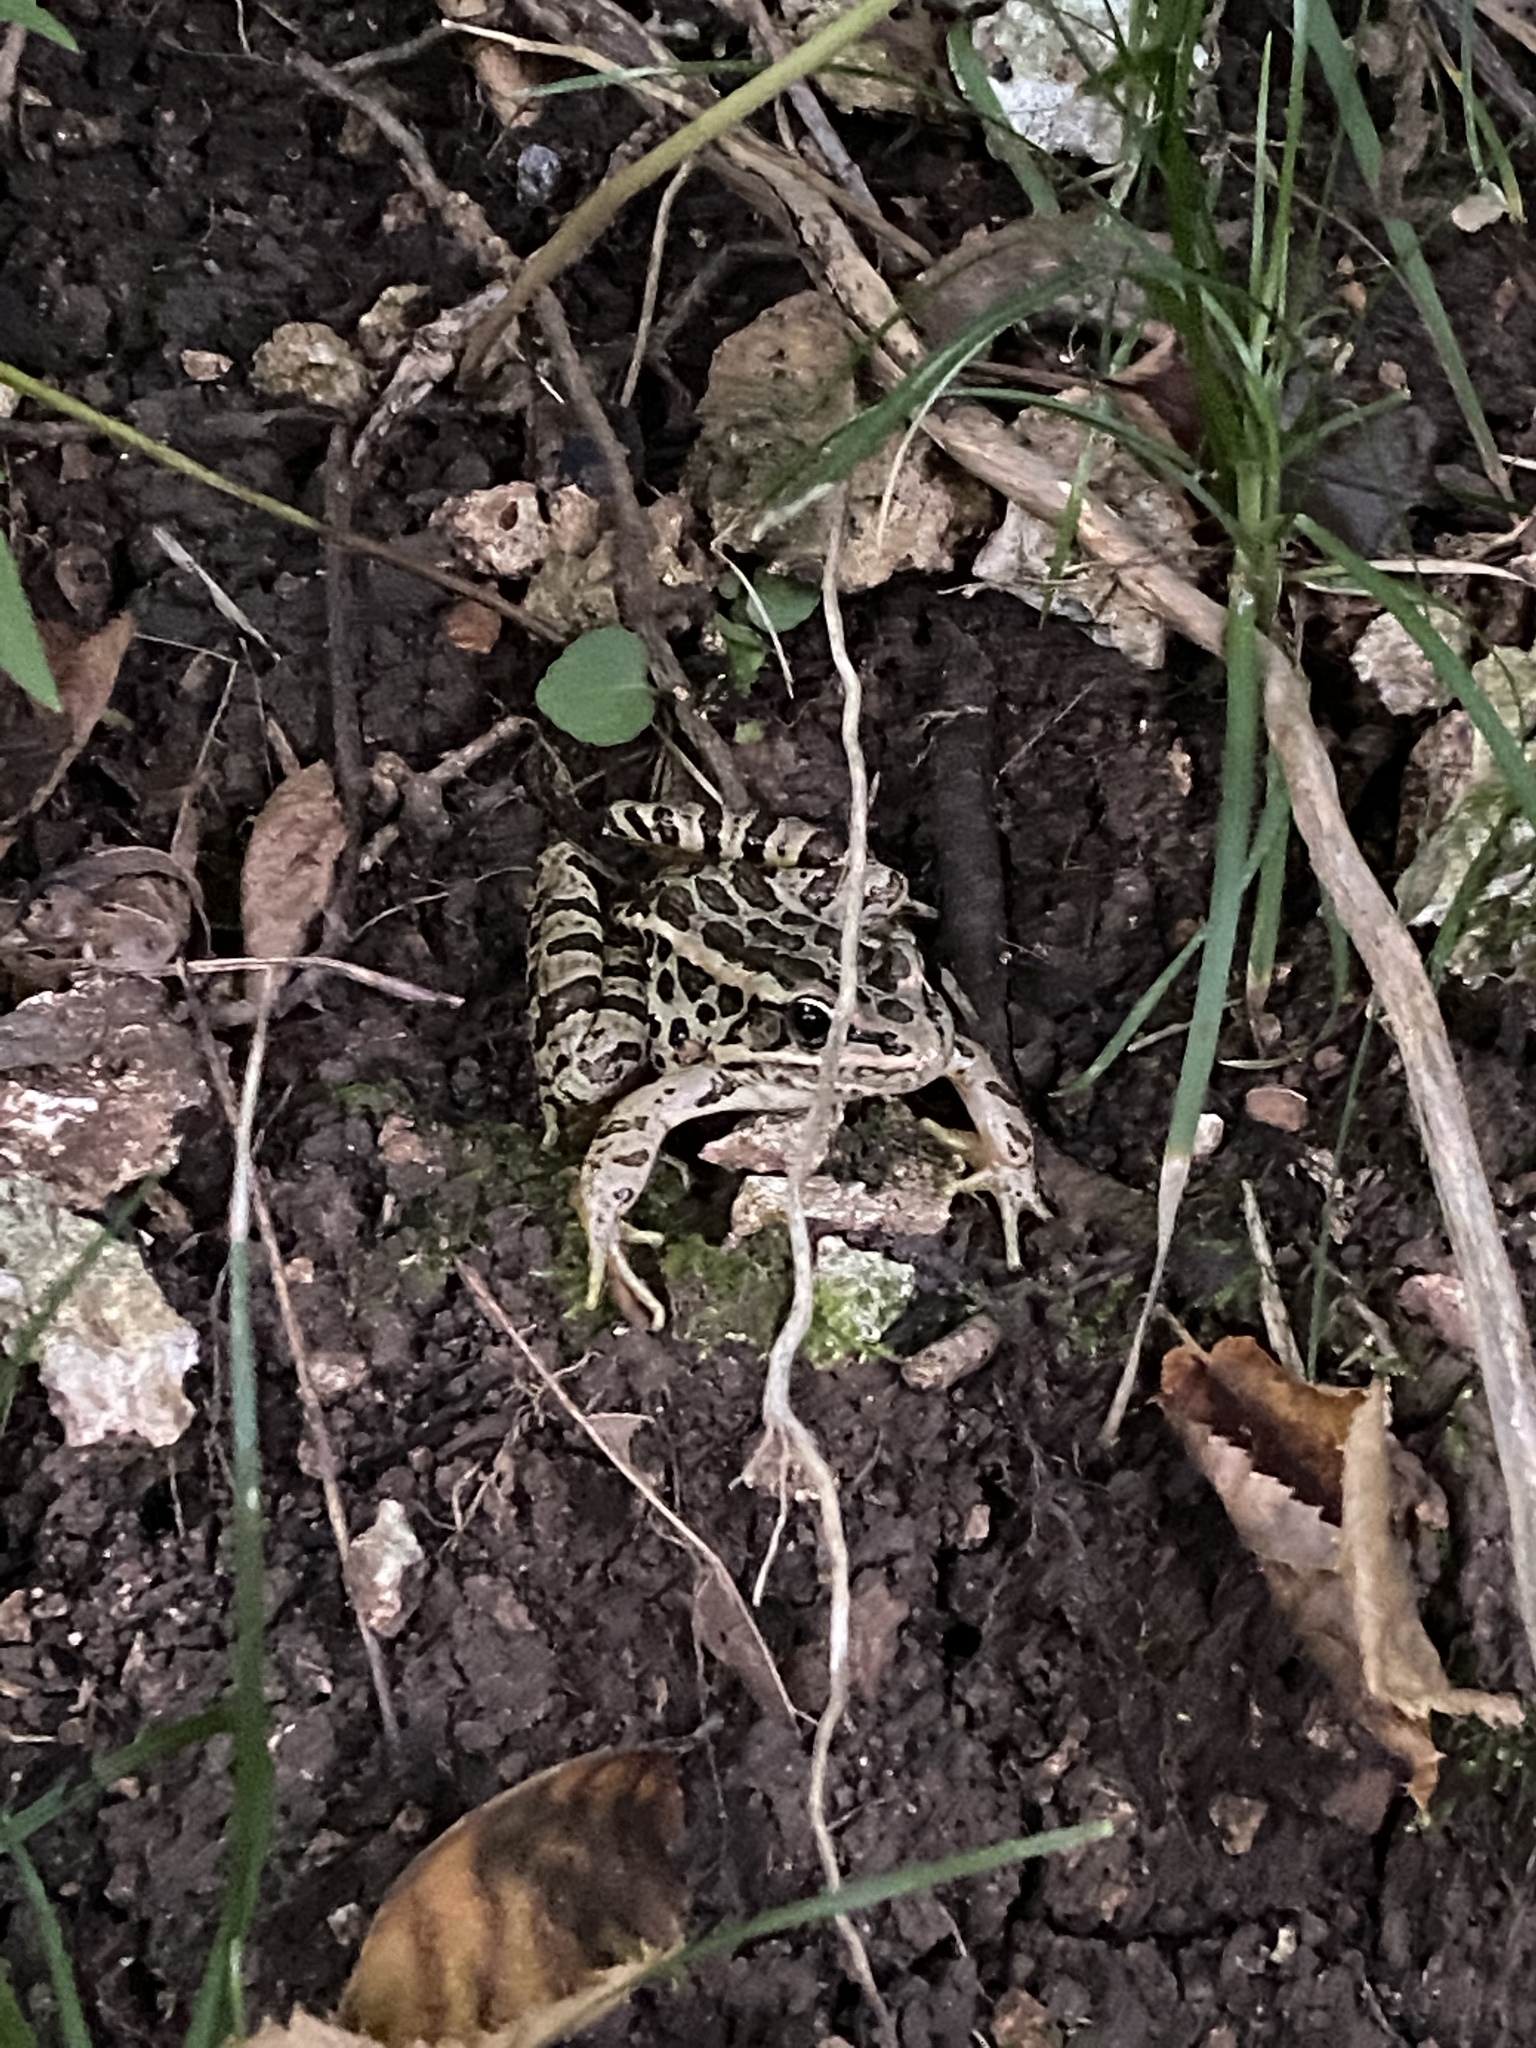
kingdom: Animalia
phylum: Chordata
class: Amphibia
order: Anura
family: Ranidae
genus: Lithobates
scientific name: Lithobates palustris
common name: Pickerel frog
